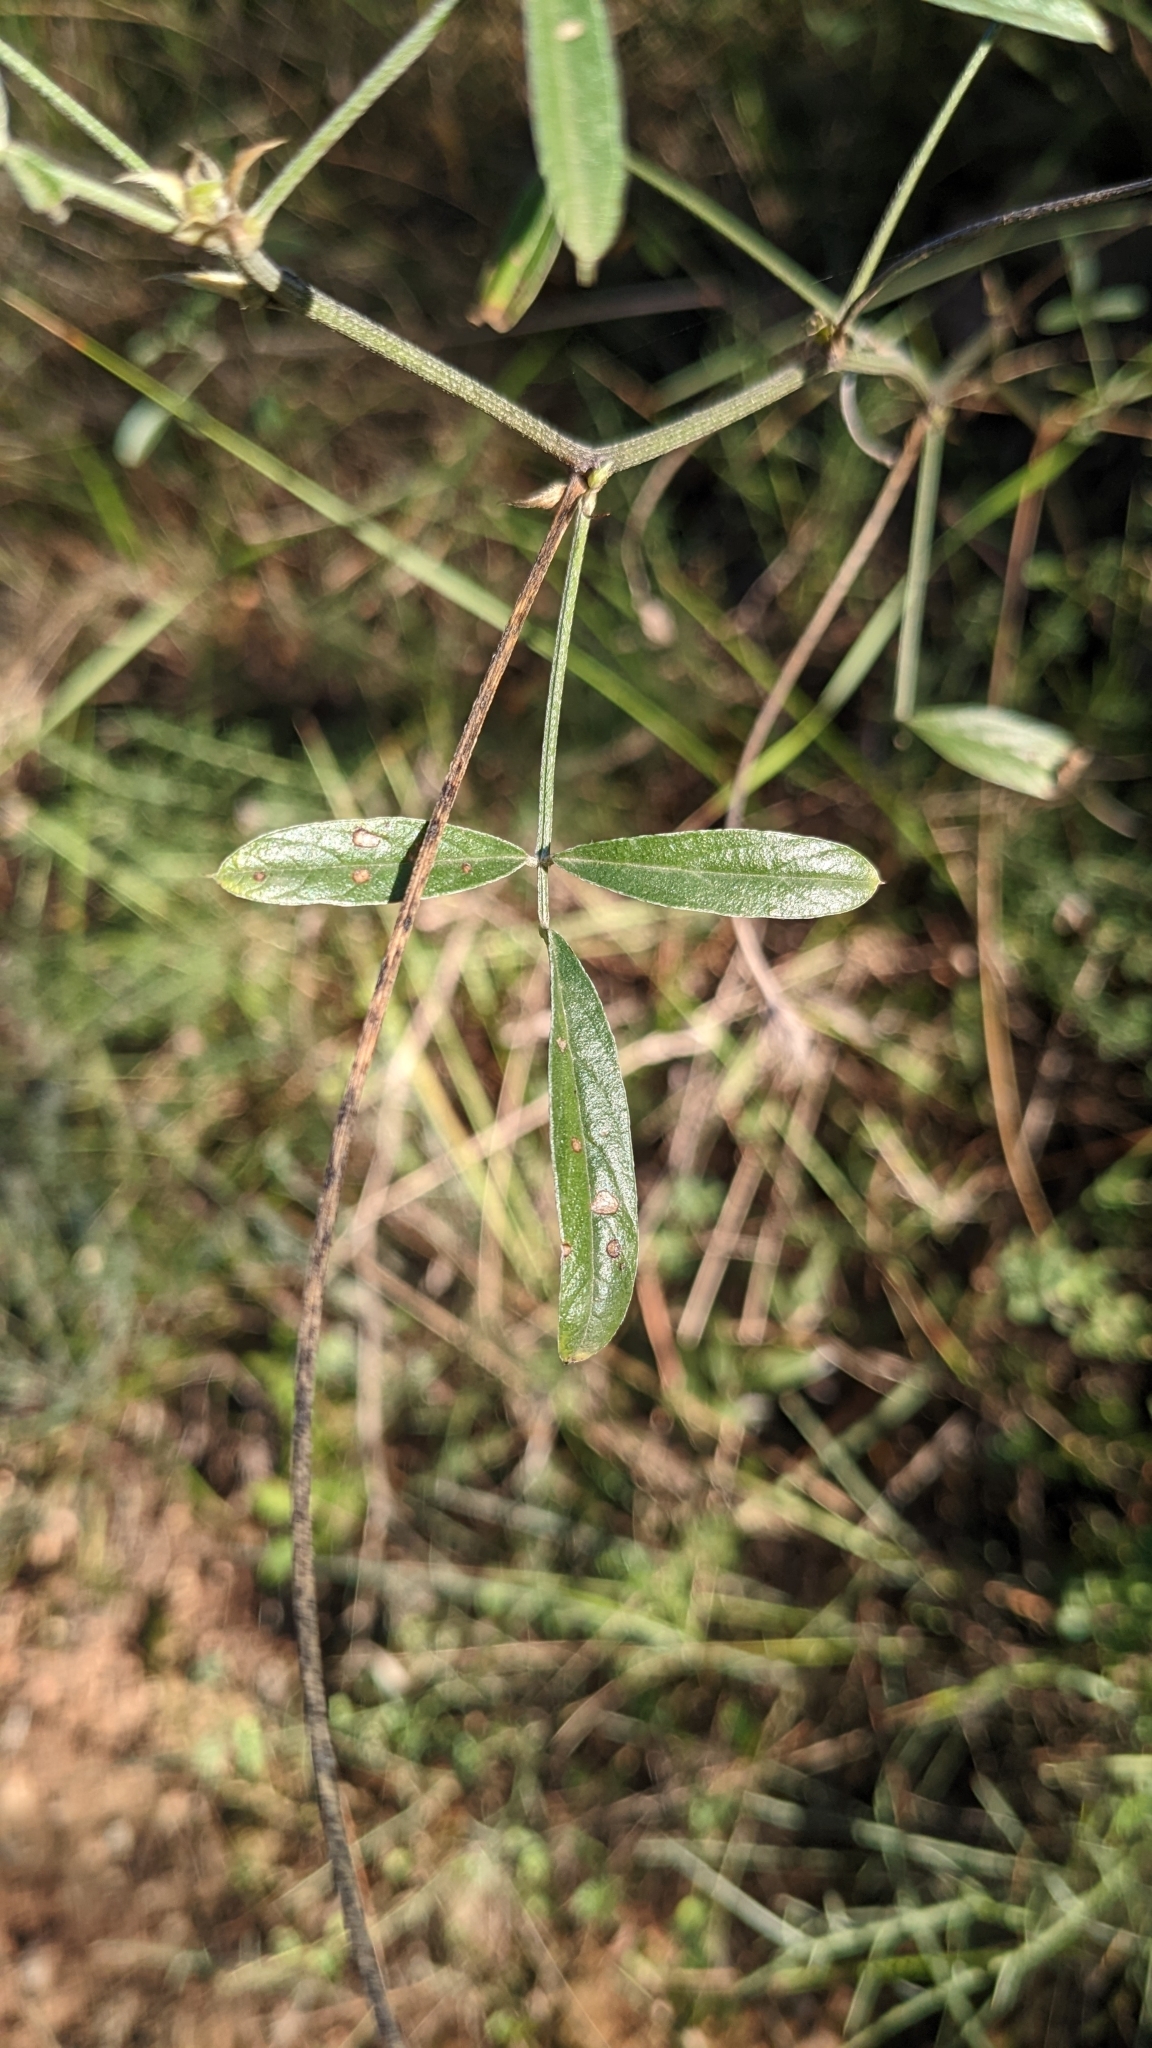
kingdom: Plantae
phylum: Tracheophyta
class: Magnoliopsida
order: Fabales
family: Fabaceae
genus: Bituminaria
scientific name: Bituminaria bituminosa
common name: Arabian pea
